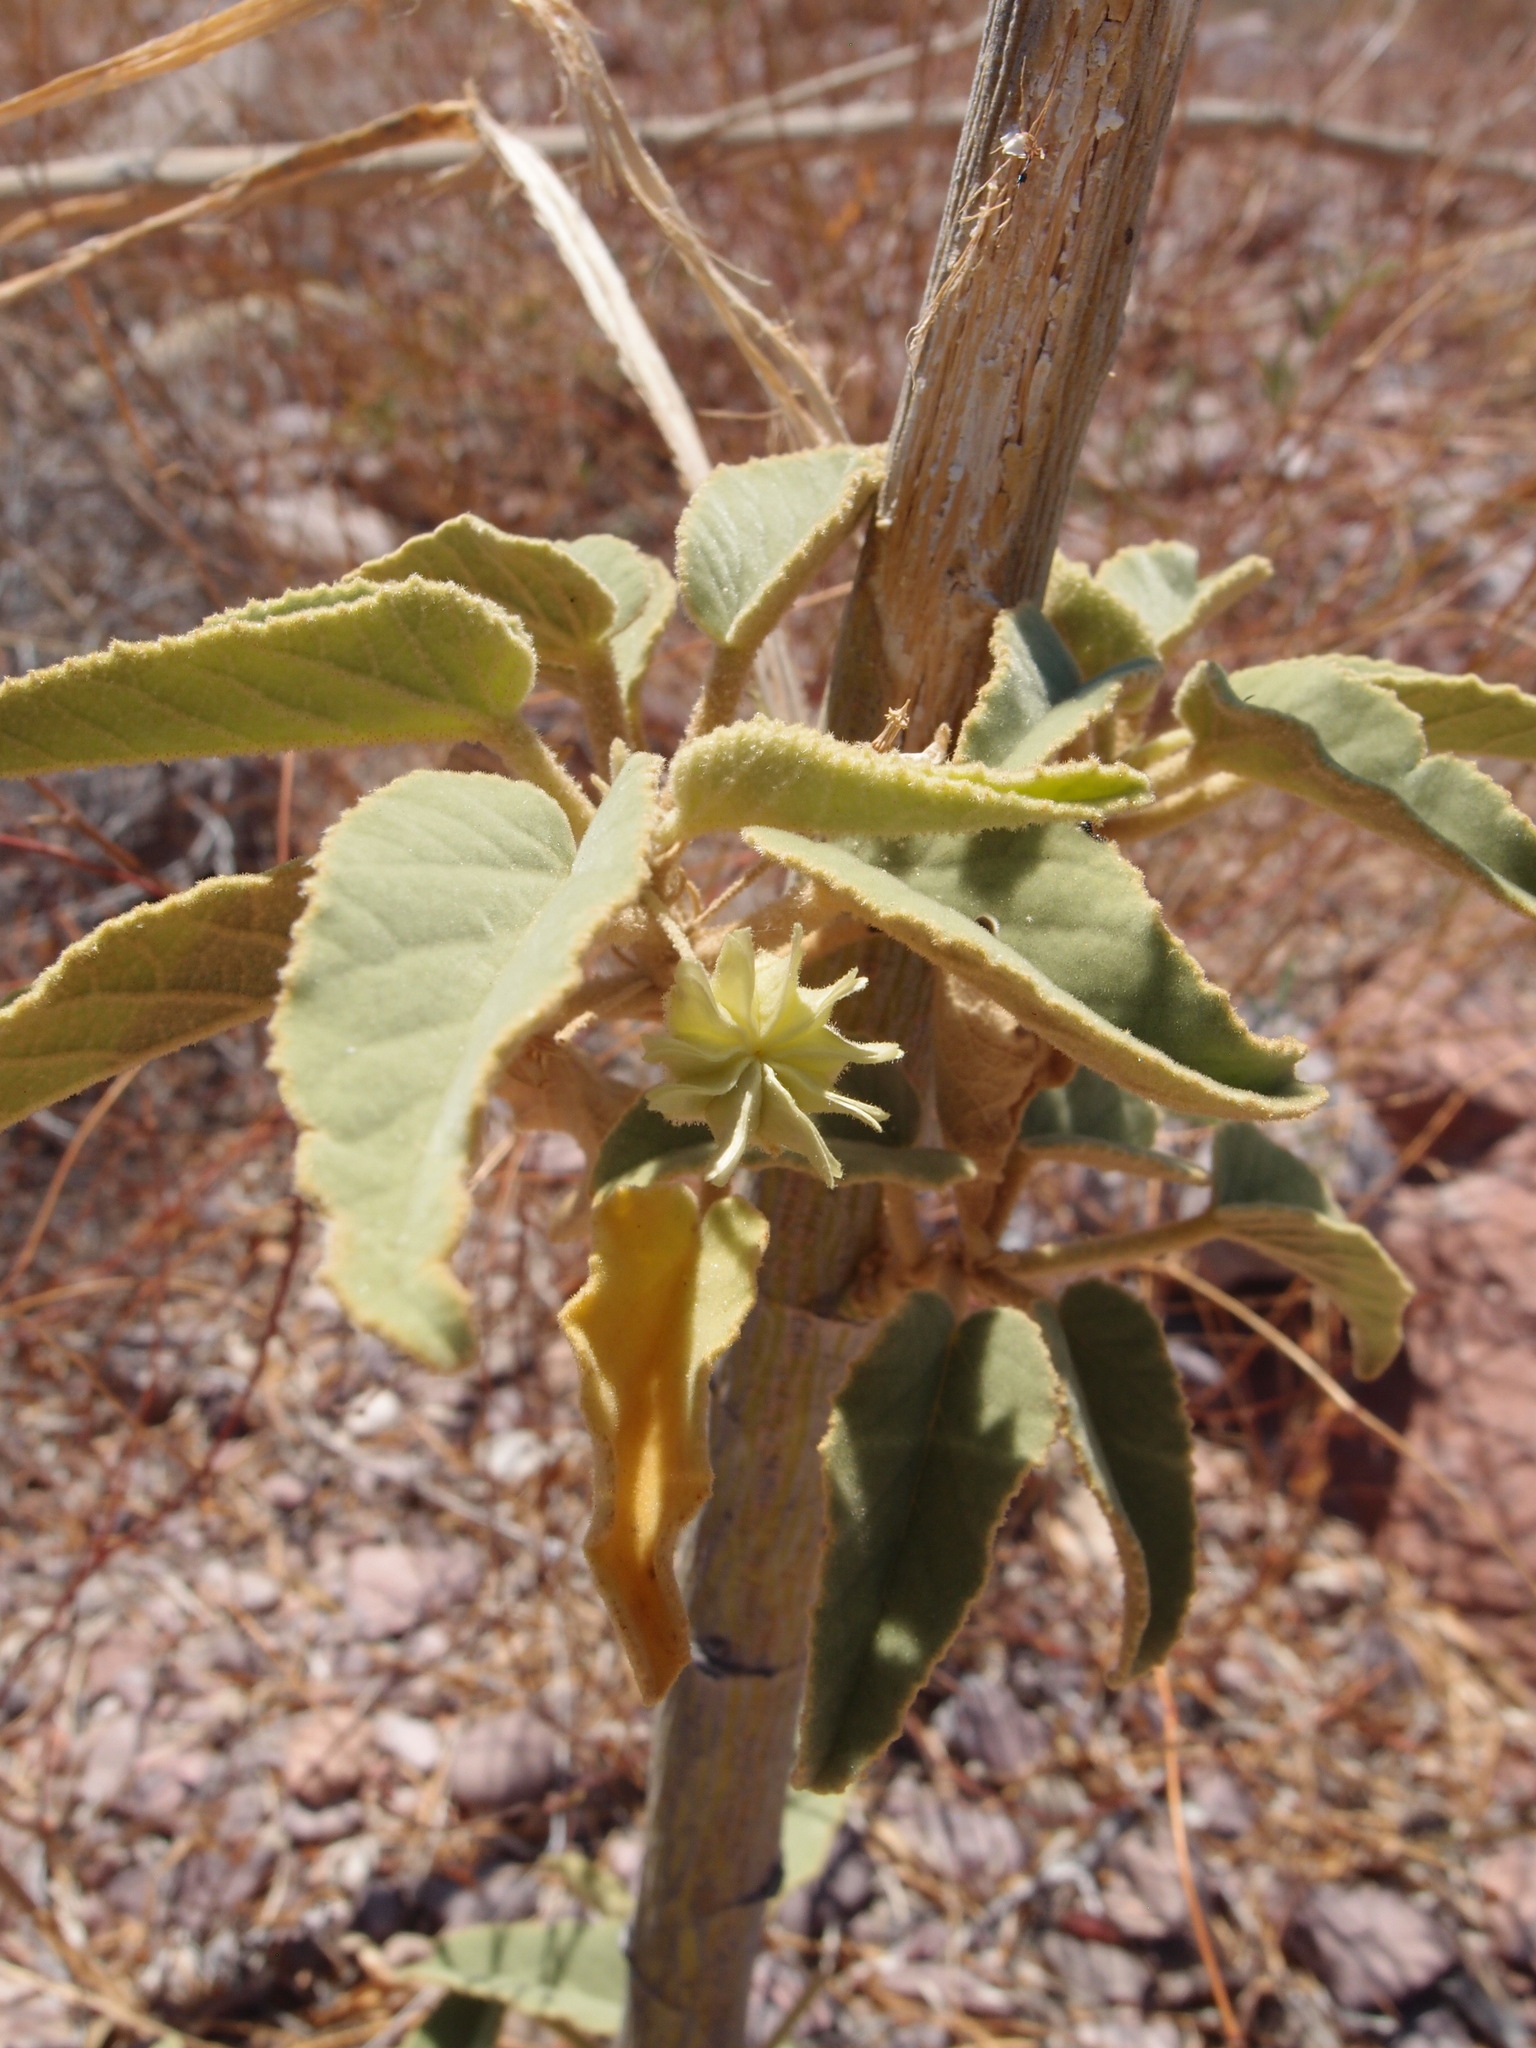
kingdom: Plantae
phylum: Tracheophyta
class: Magnoliopsida
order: Malvales
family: Malvaceae
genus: Horsfordia
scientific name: Horsfordia newberryi
